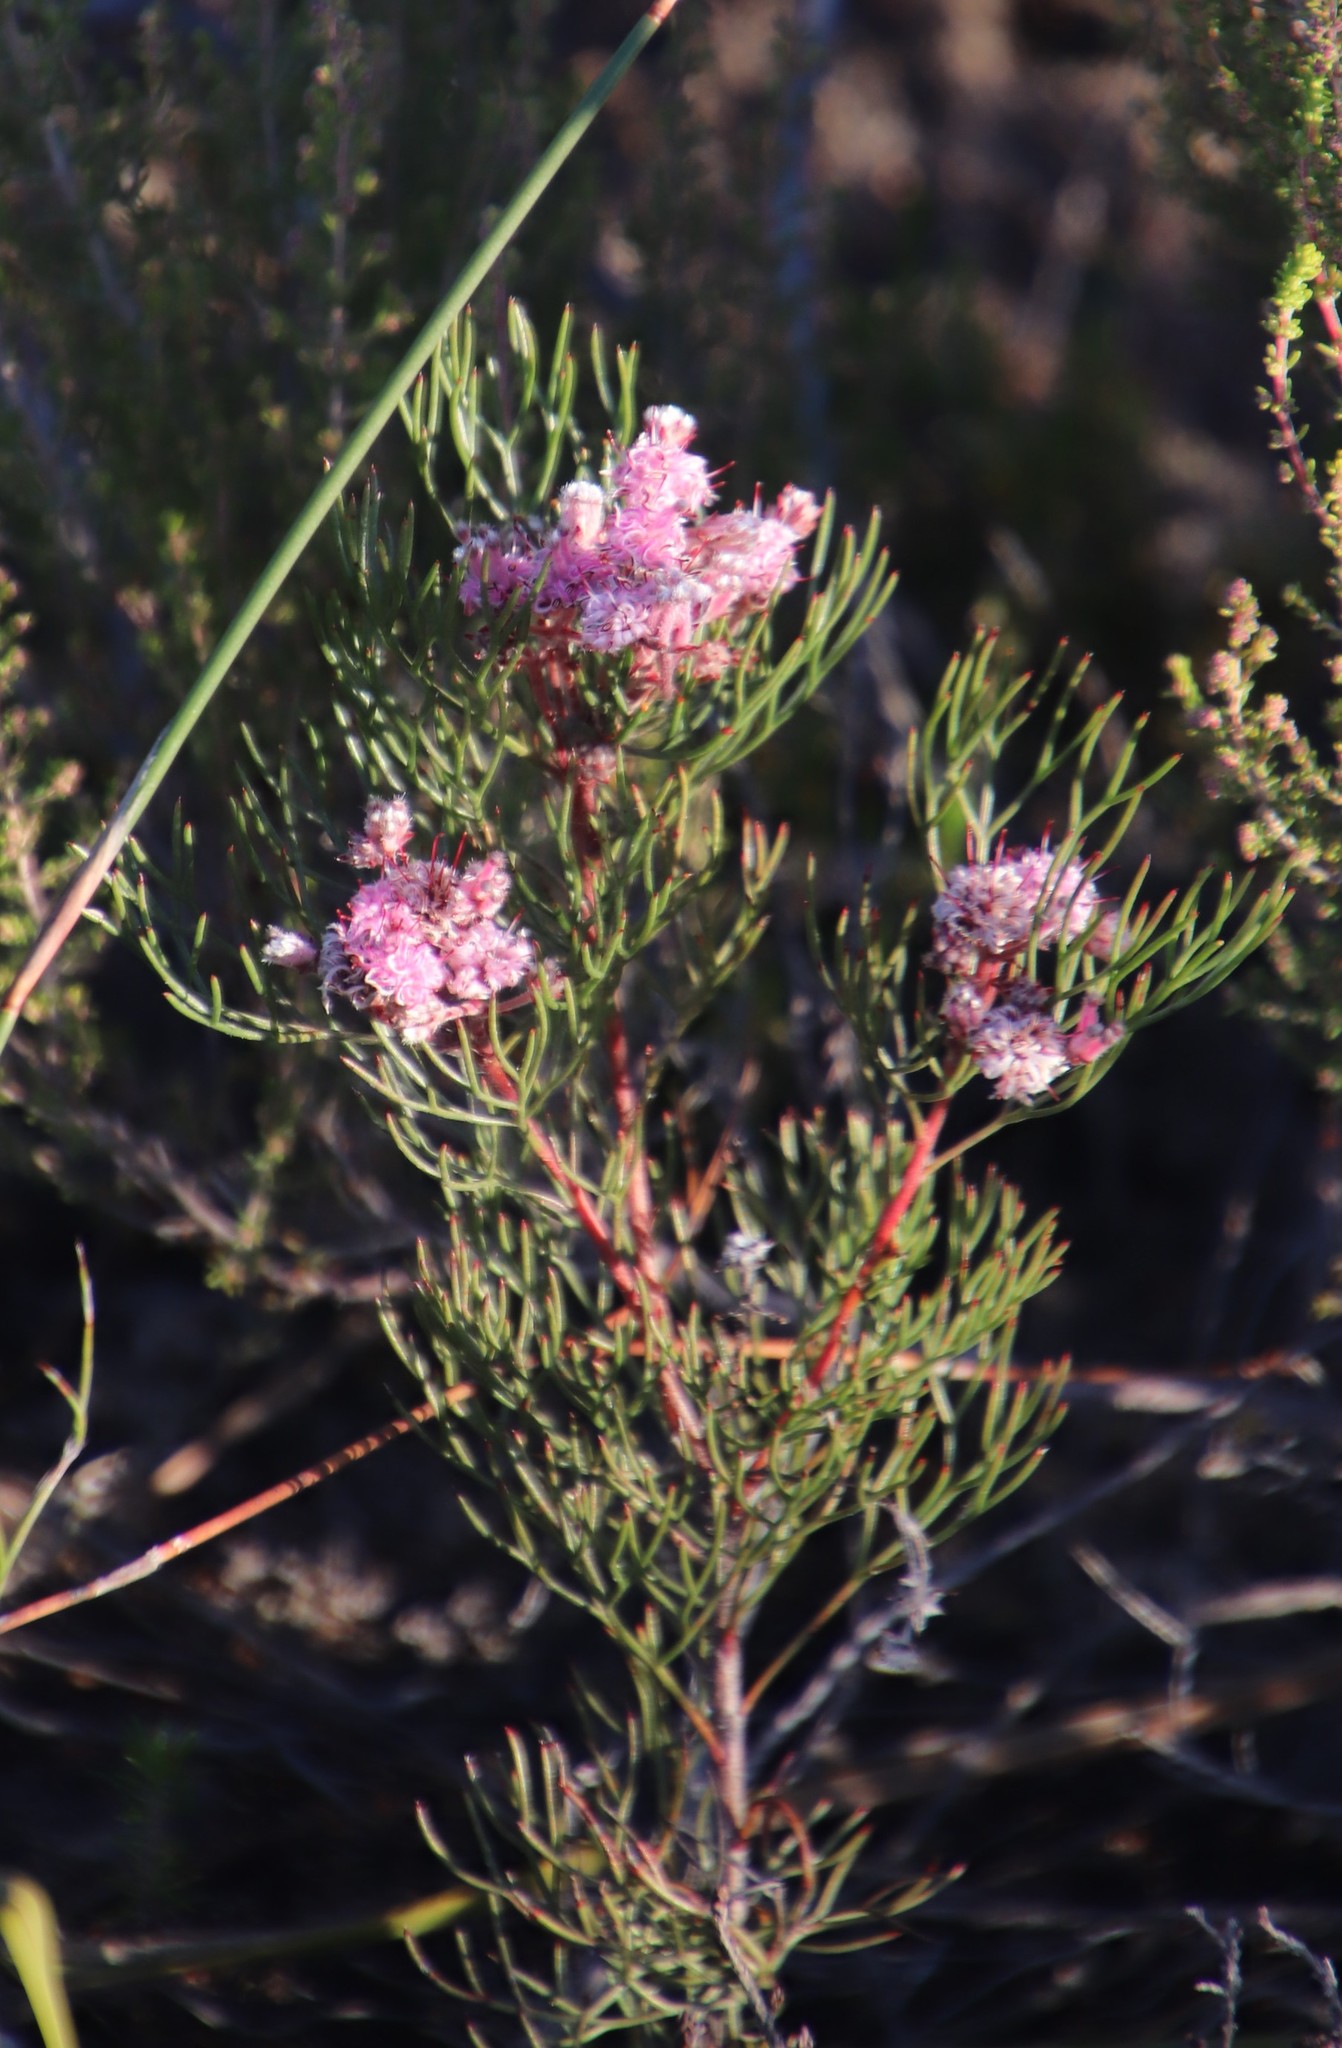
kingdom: Plantae
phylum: Tracheophyta
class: Magnoliopsida
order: Proteales
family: Proteaceae
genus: Serruria
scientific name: Serruria fasciflora
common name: Common pin spiderhead
